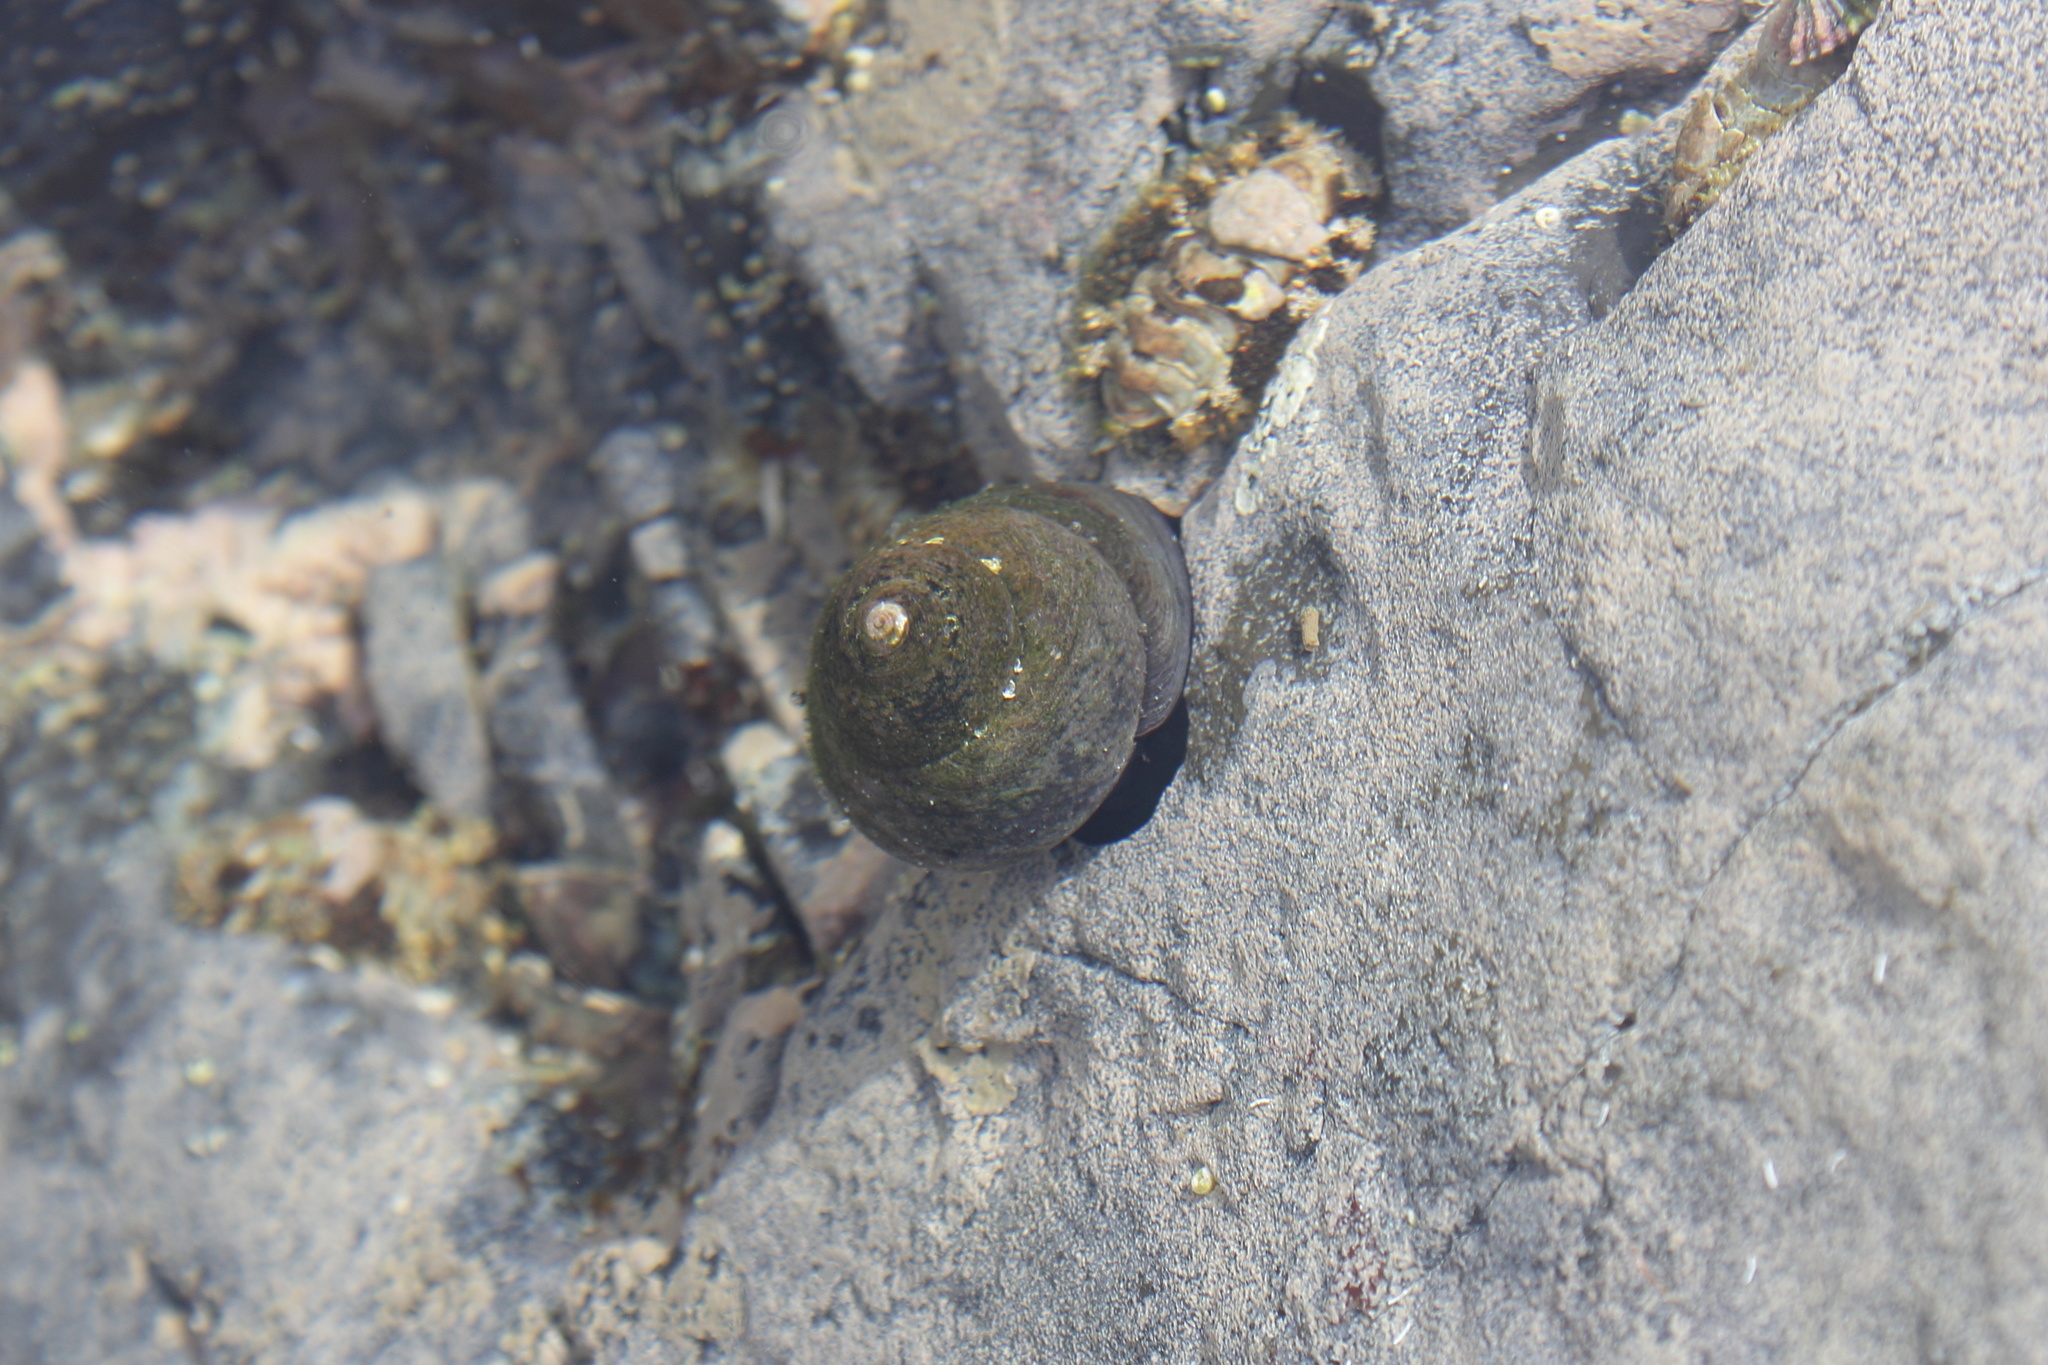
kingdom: Animalia
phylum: Mollusca
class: Gastropoda
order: Trochida
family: Tegulidae
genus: Tegula
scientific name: Tegula xanthostigma
